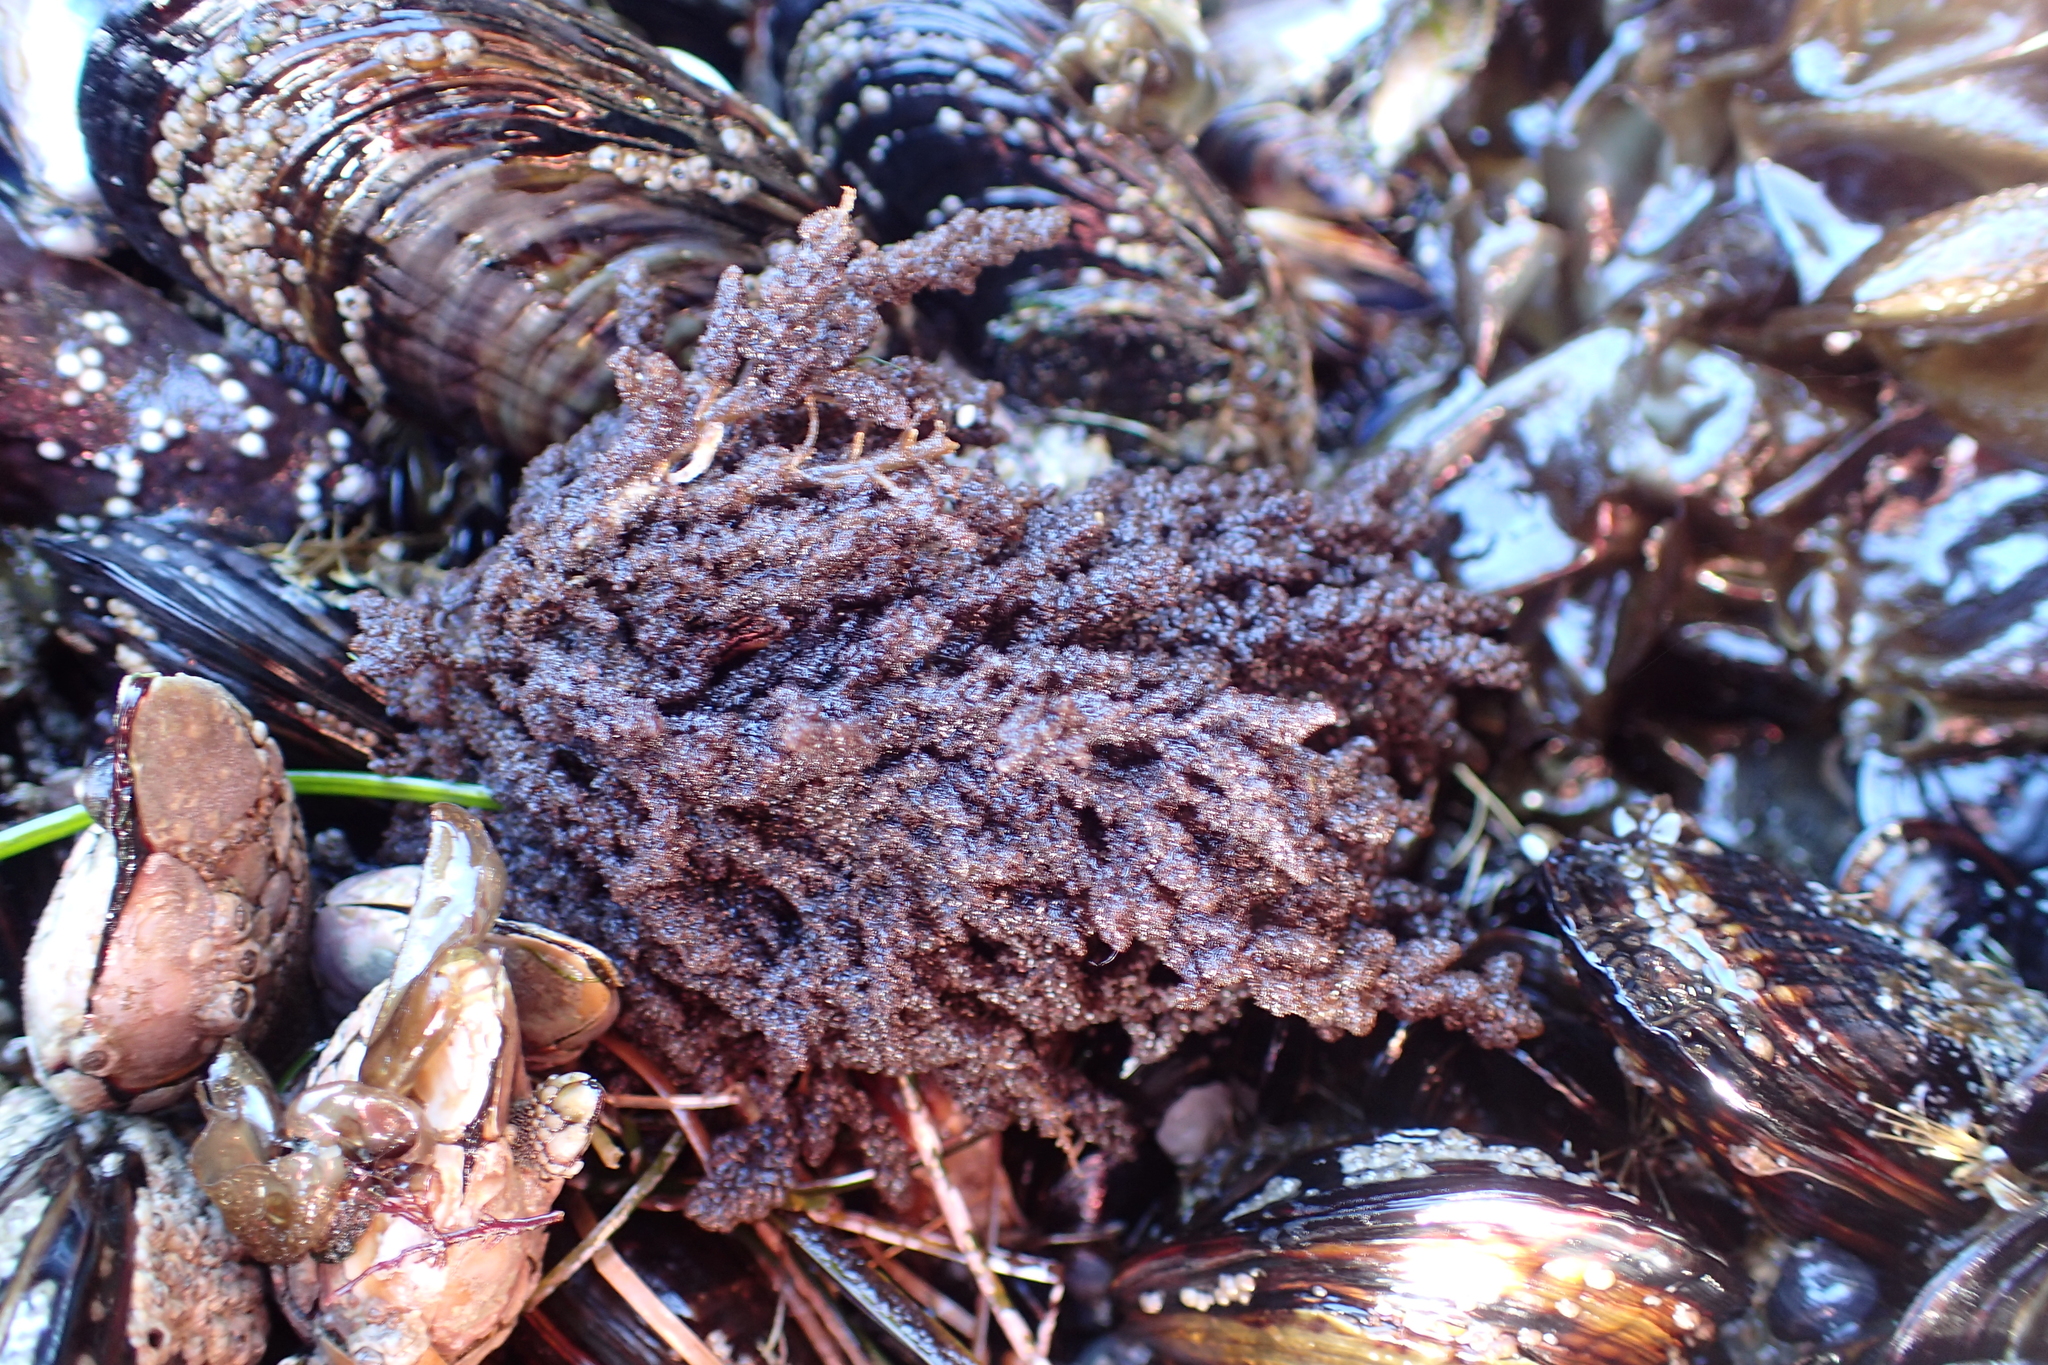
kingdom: Plantae
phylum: Rhodophyta
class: Florideophyceae
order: Ceramiales
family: Callithamniaceae
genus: Callithamnion
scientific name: Callithamnion pikeanum
